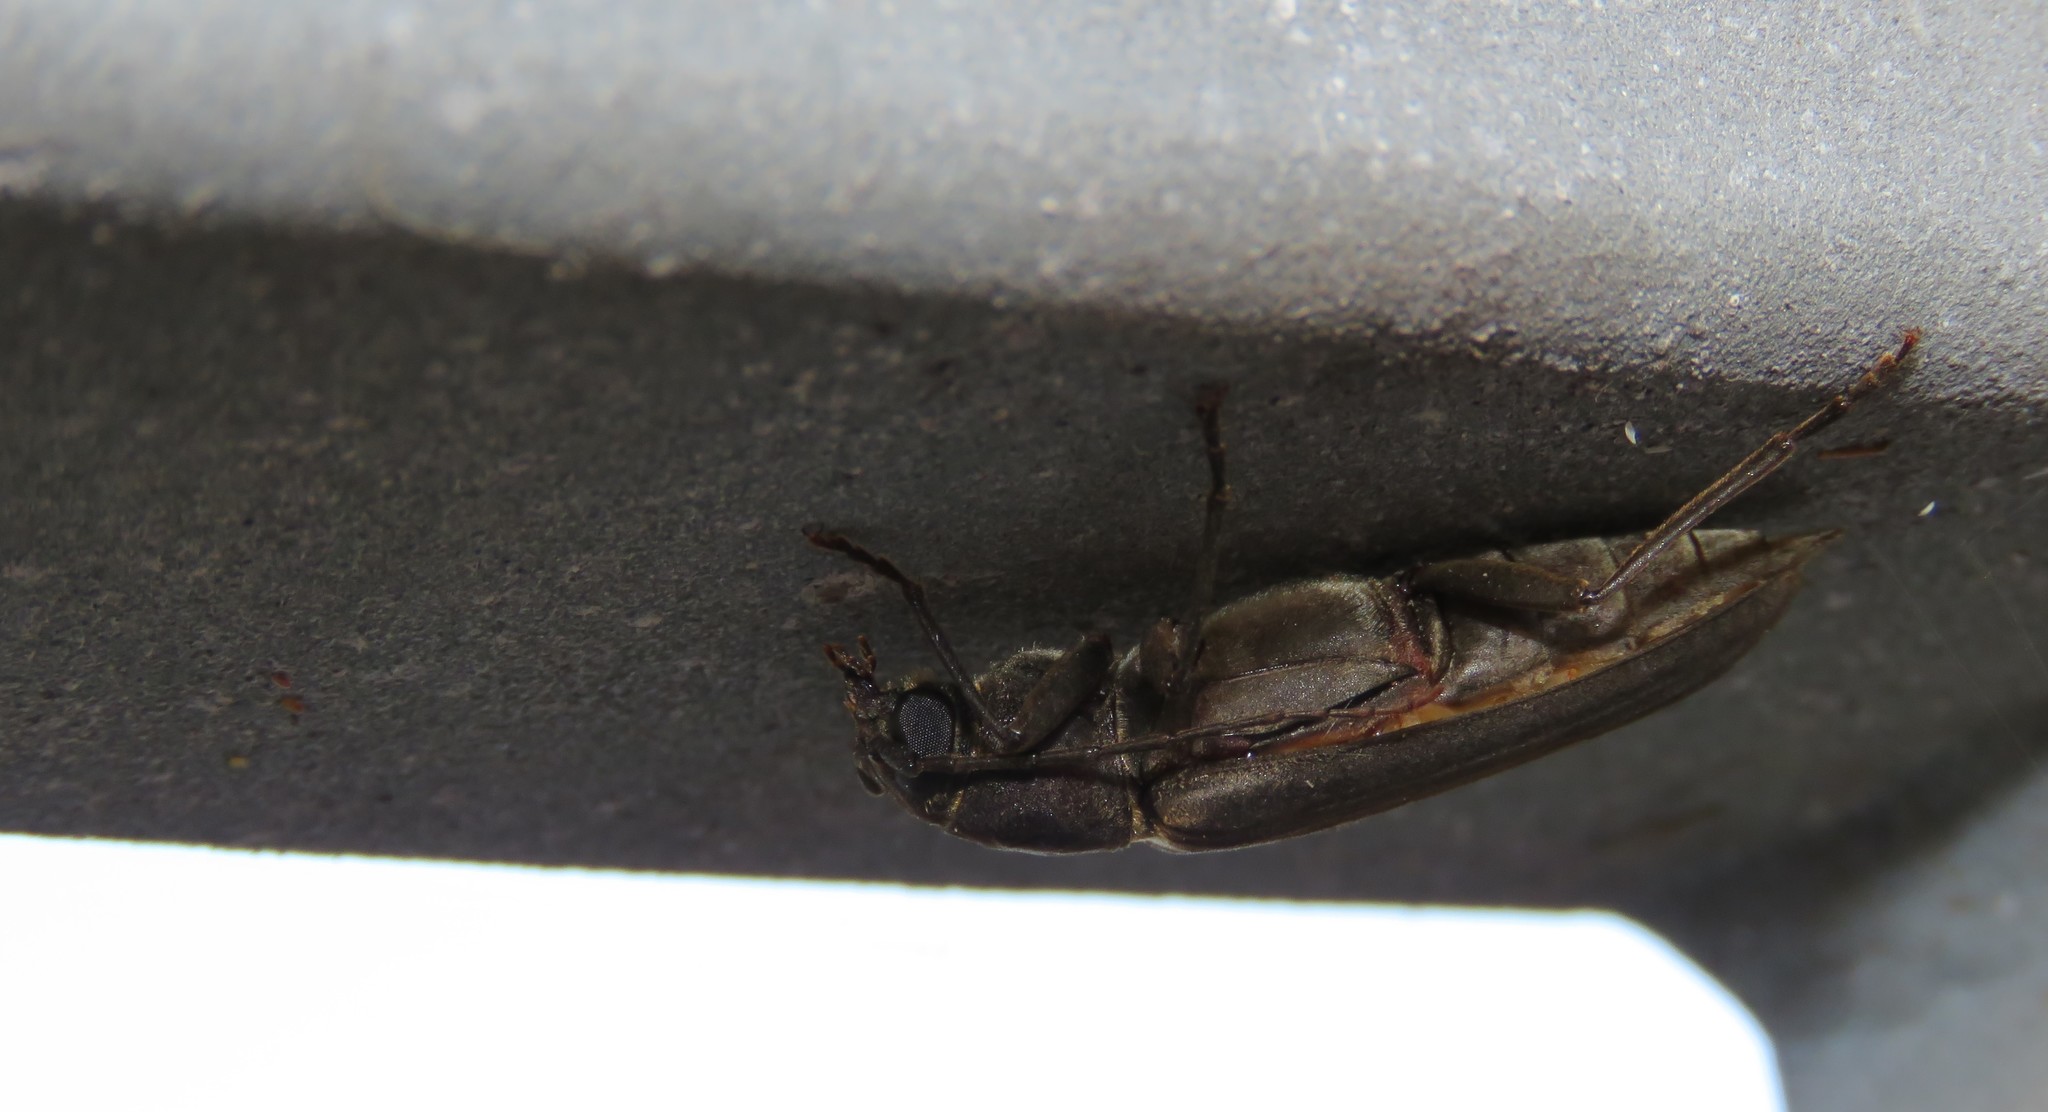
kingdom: Animalia
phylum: Arthropoda
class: Insecta
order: Coleoptera
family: Cerambycidae
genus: Arhopalus
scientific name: Arhopalus ferus
